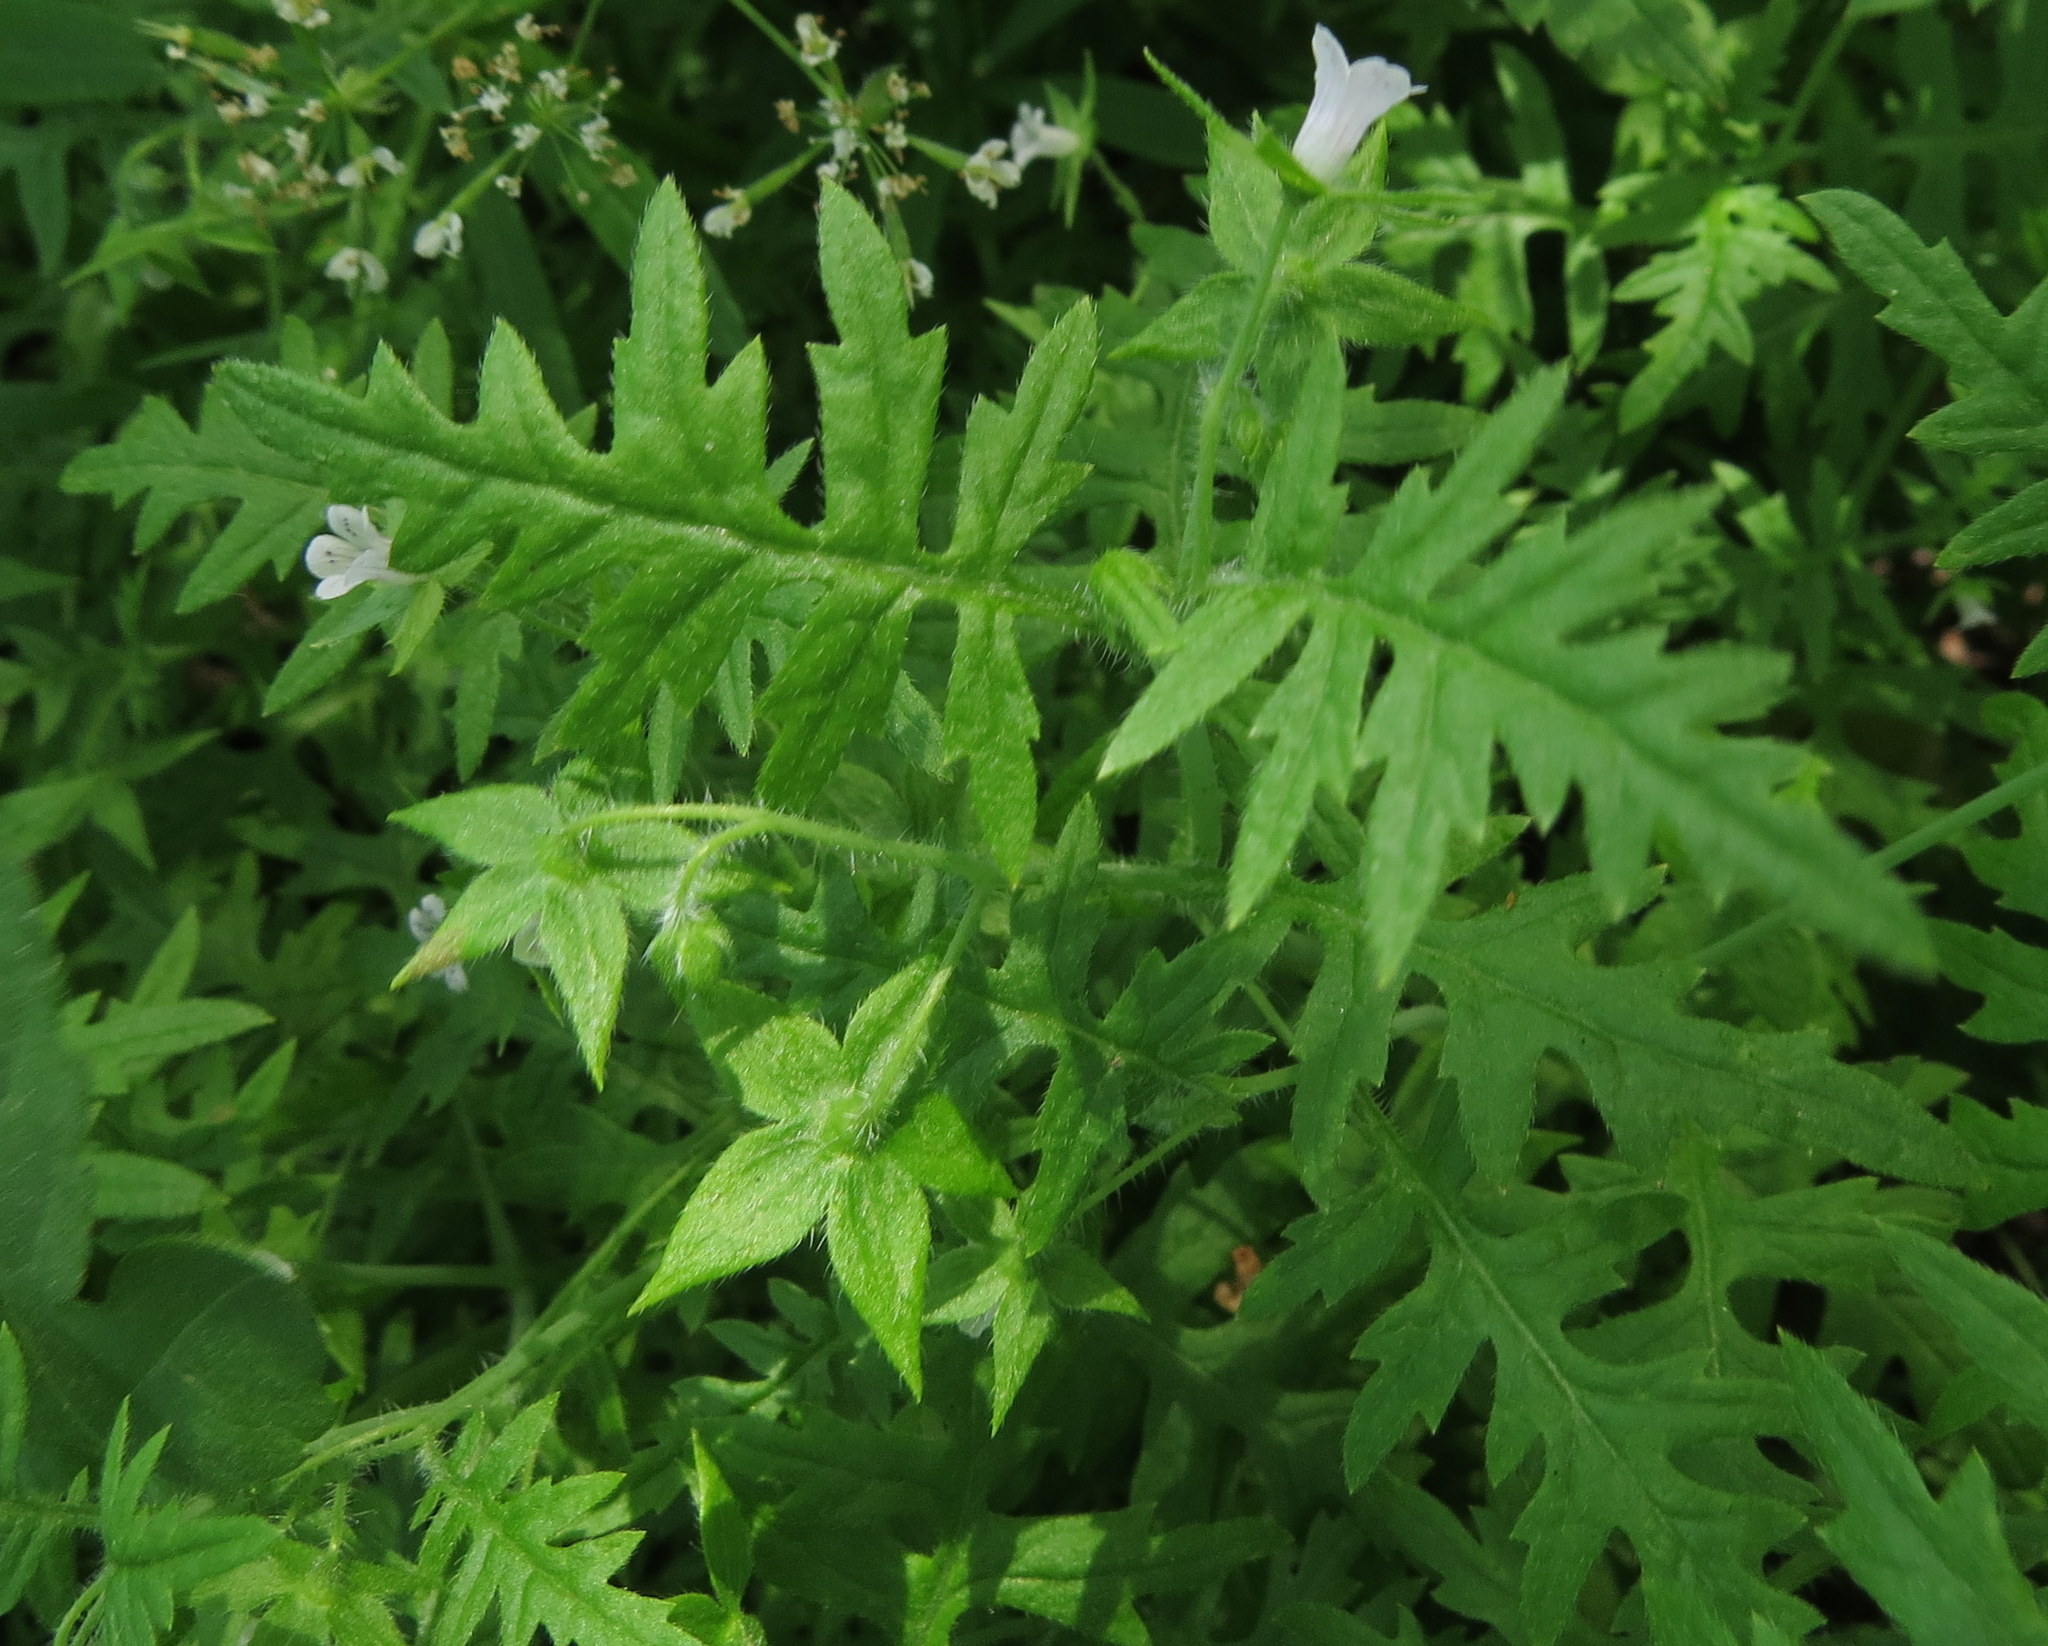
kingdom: Plantae
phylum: Tracheophyta
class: Magnoliopsida
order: Boraginales
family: Hydrophyllaceae
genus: Ellisia
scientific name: Ellisia nyctelea
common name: Aunt lucy
